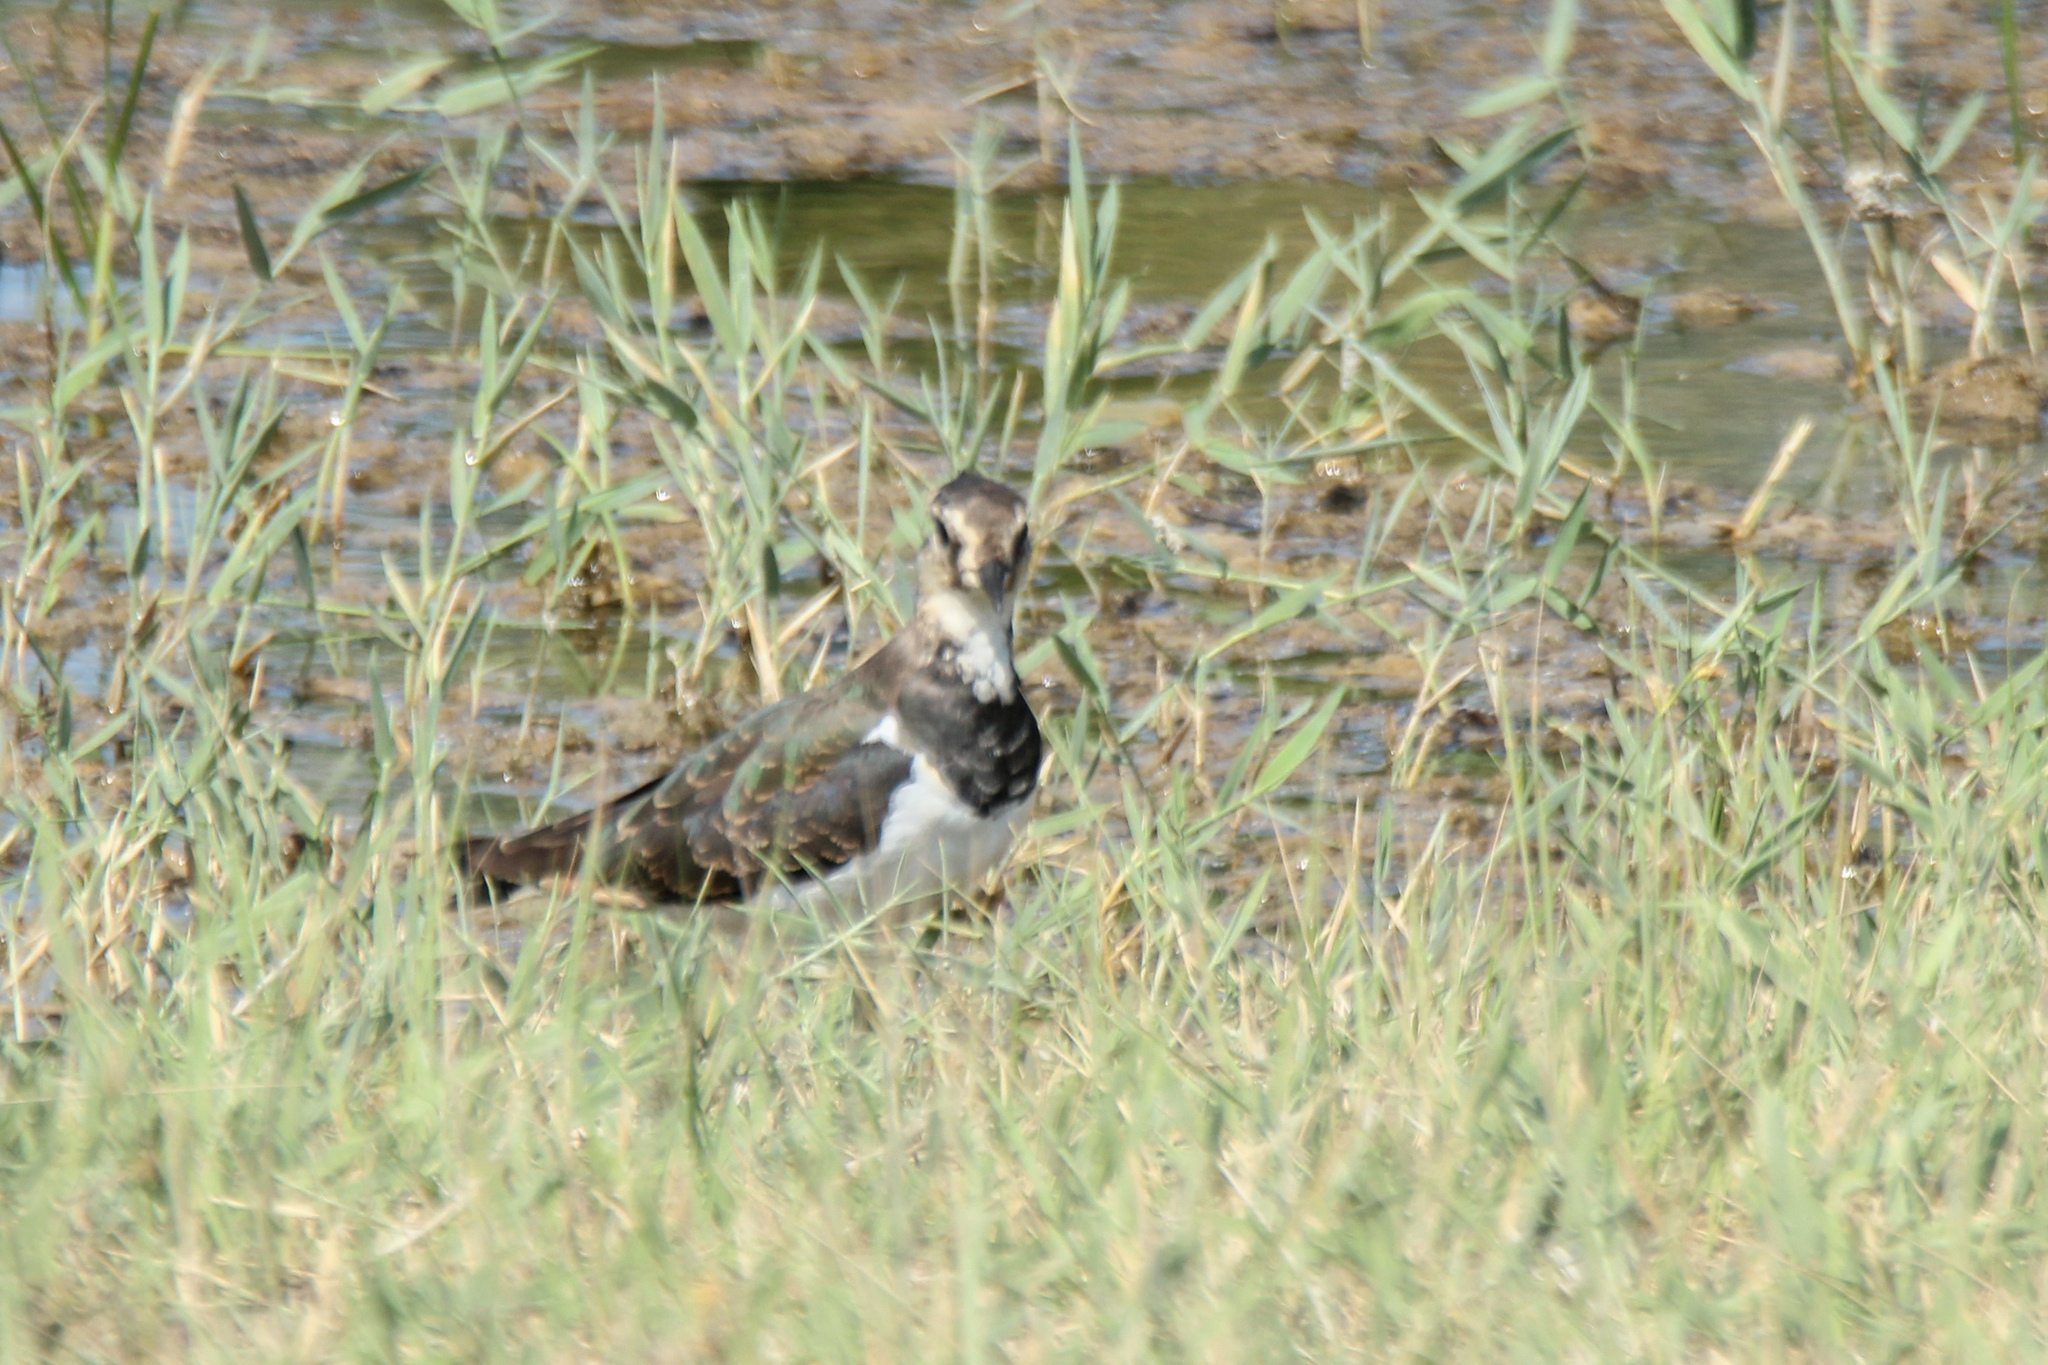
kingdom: Animalia
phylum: Chordata
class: Aves
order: Charadriiformes
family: Charadriidae
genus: Vanellus
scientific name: Vanellus vanellus
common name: Northern lapwing
